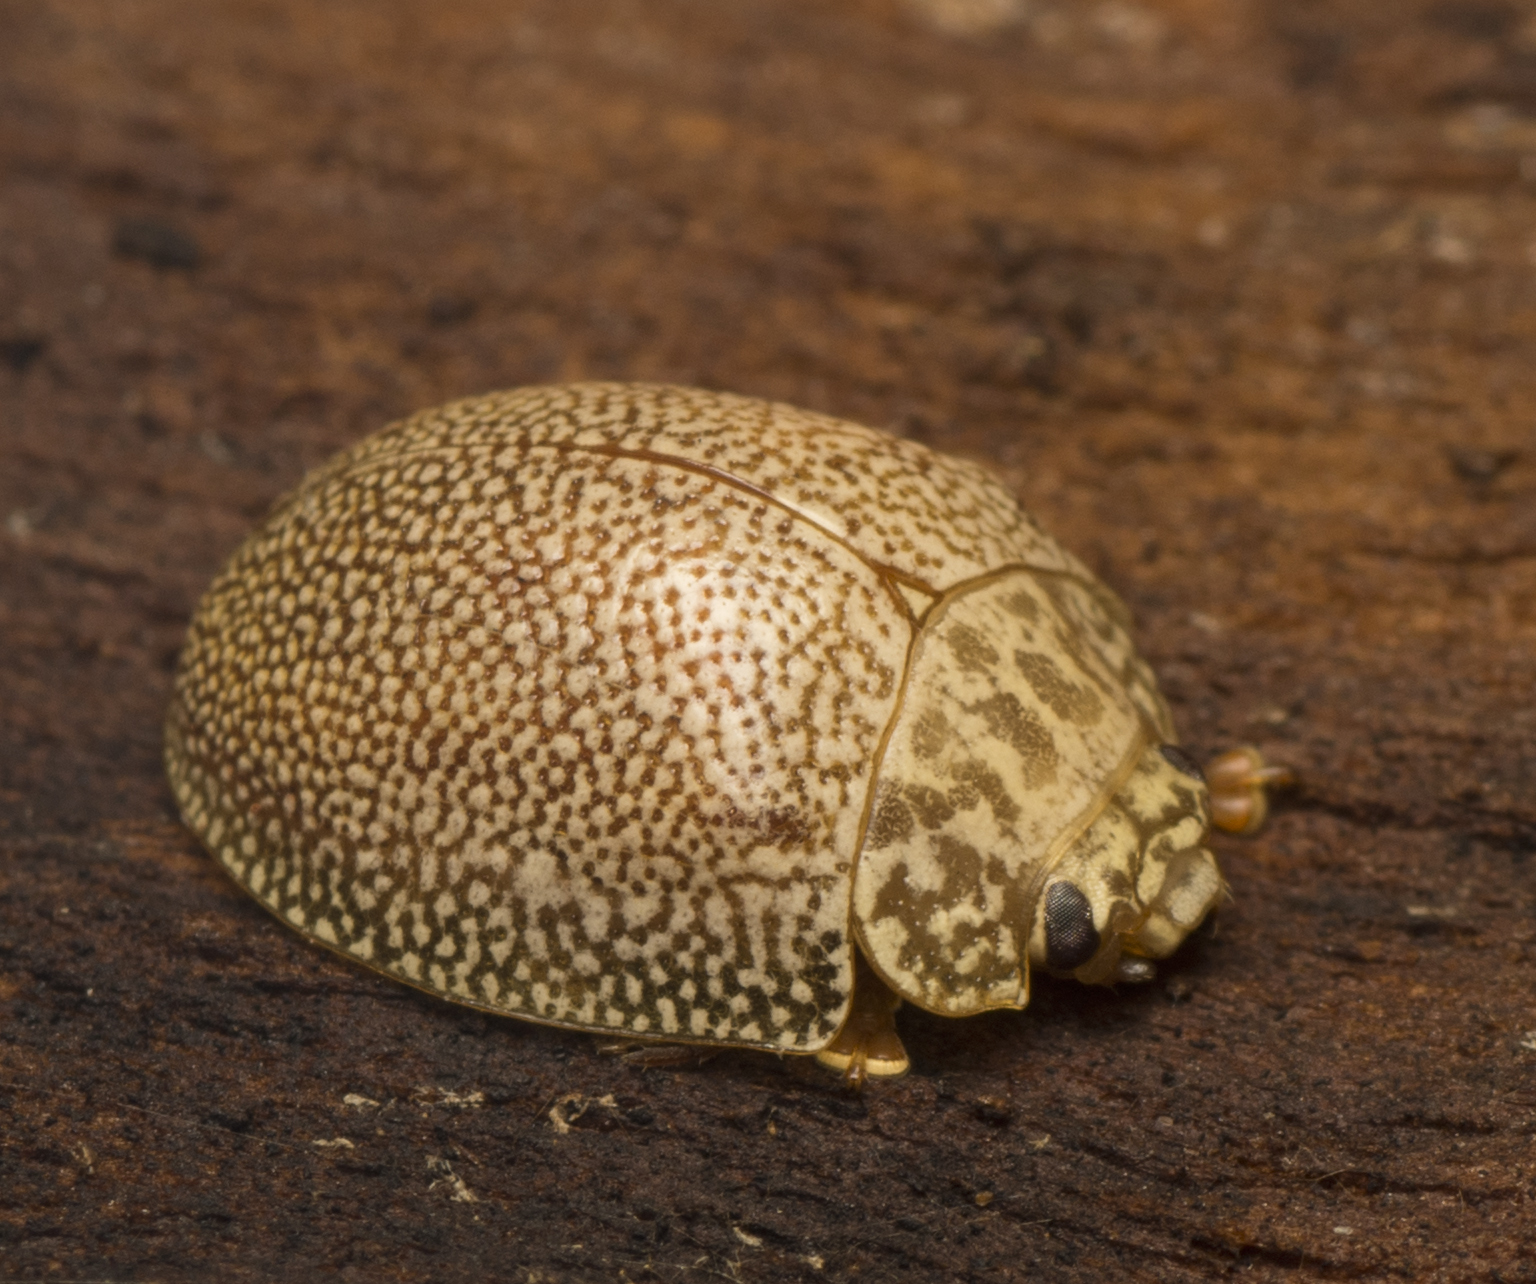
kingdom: Animalia
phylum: Arthropoda
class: Insecta
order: Coleoptera
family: Chrysomelidae
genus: Paropsis
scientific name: Paropsis
